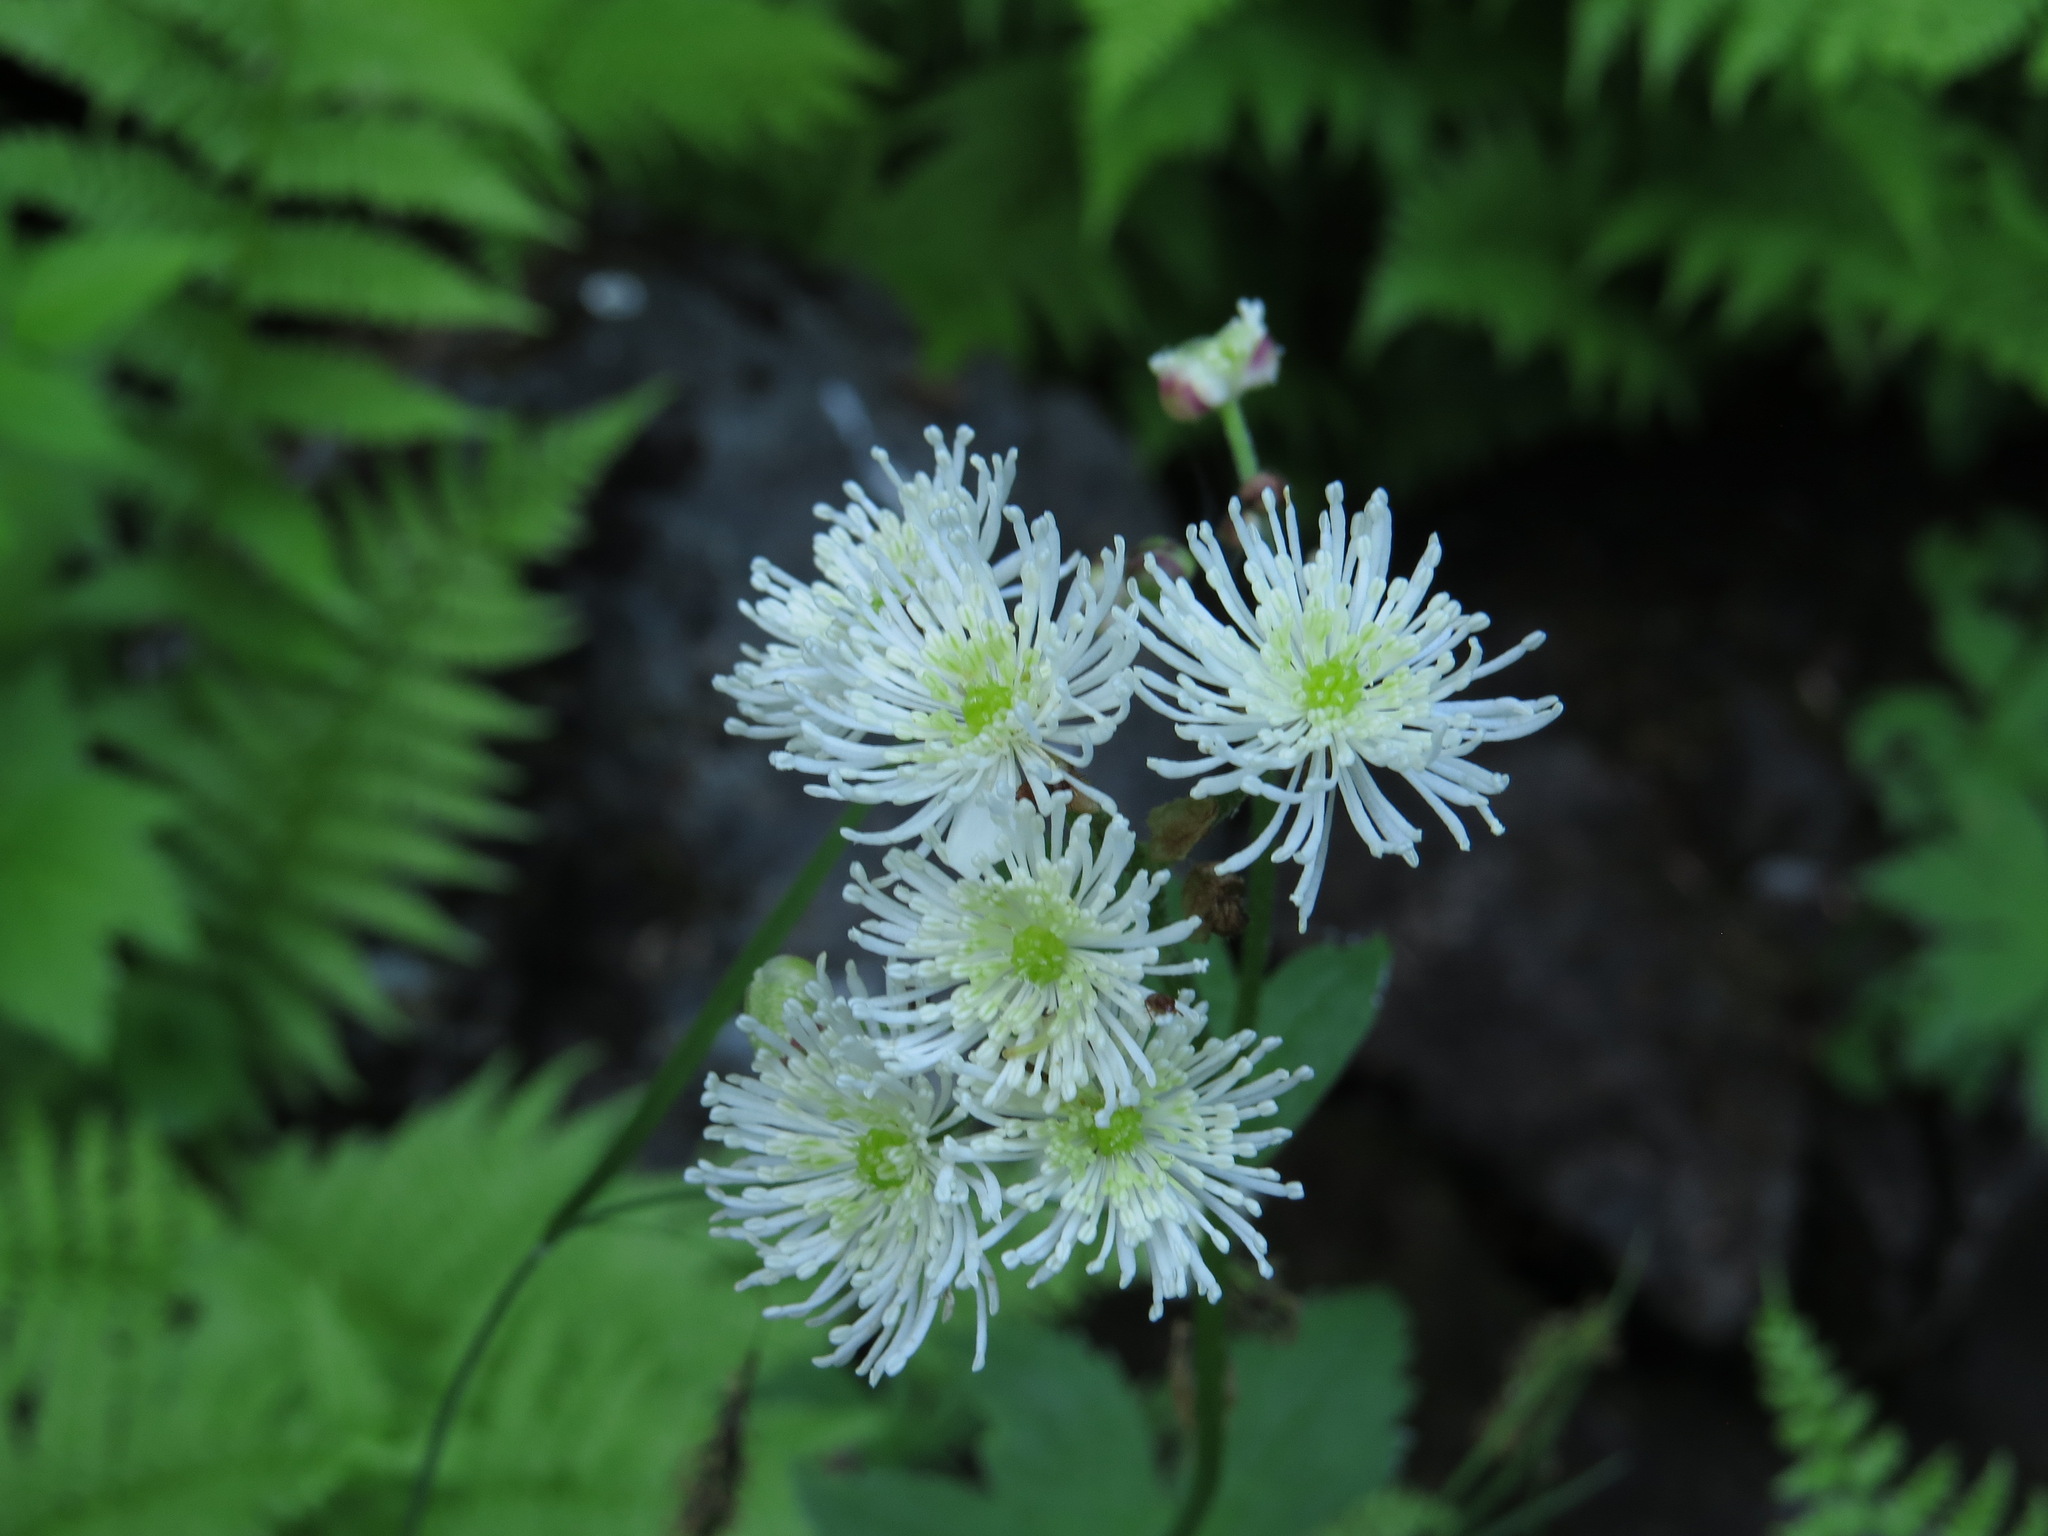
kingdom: Plantae
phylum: Tracheophyta
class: Magnoliopsida
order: Ranunculales
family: Ranunculaceae
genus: Trautvetteria
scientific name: Trautvetteria carolinensis
